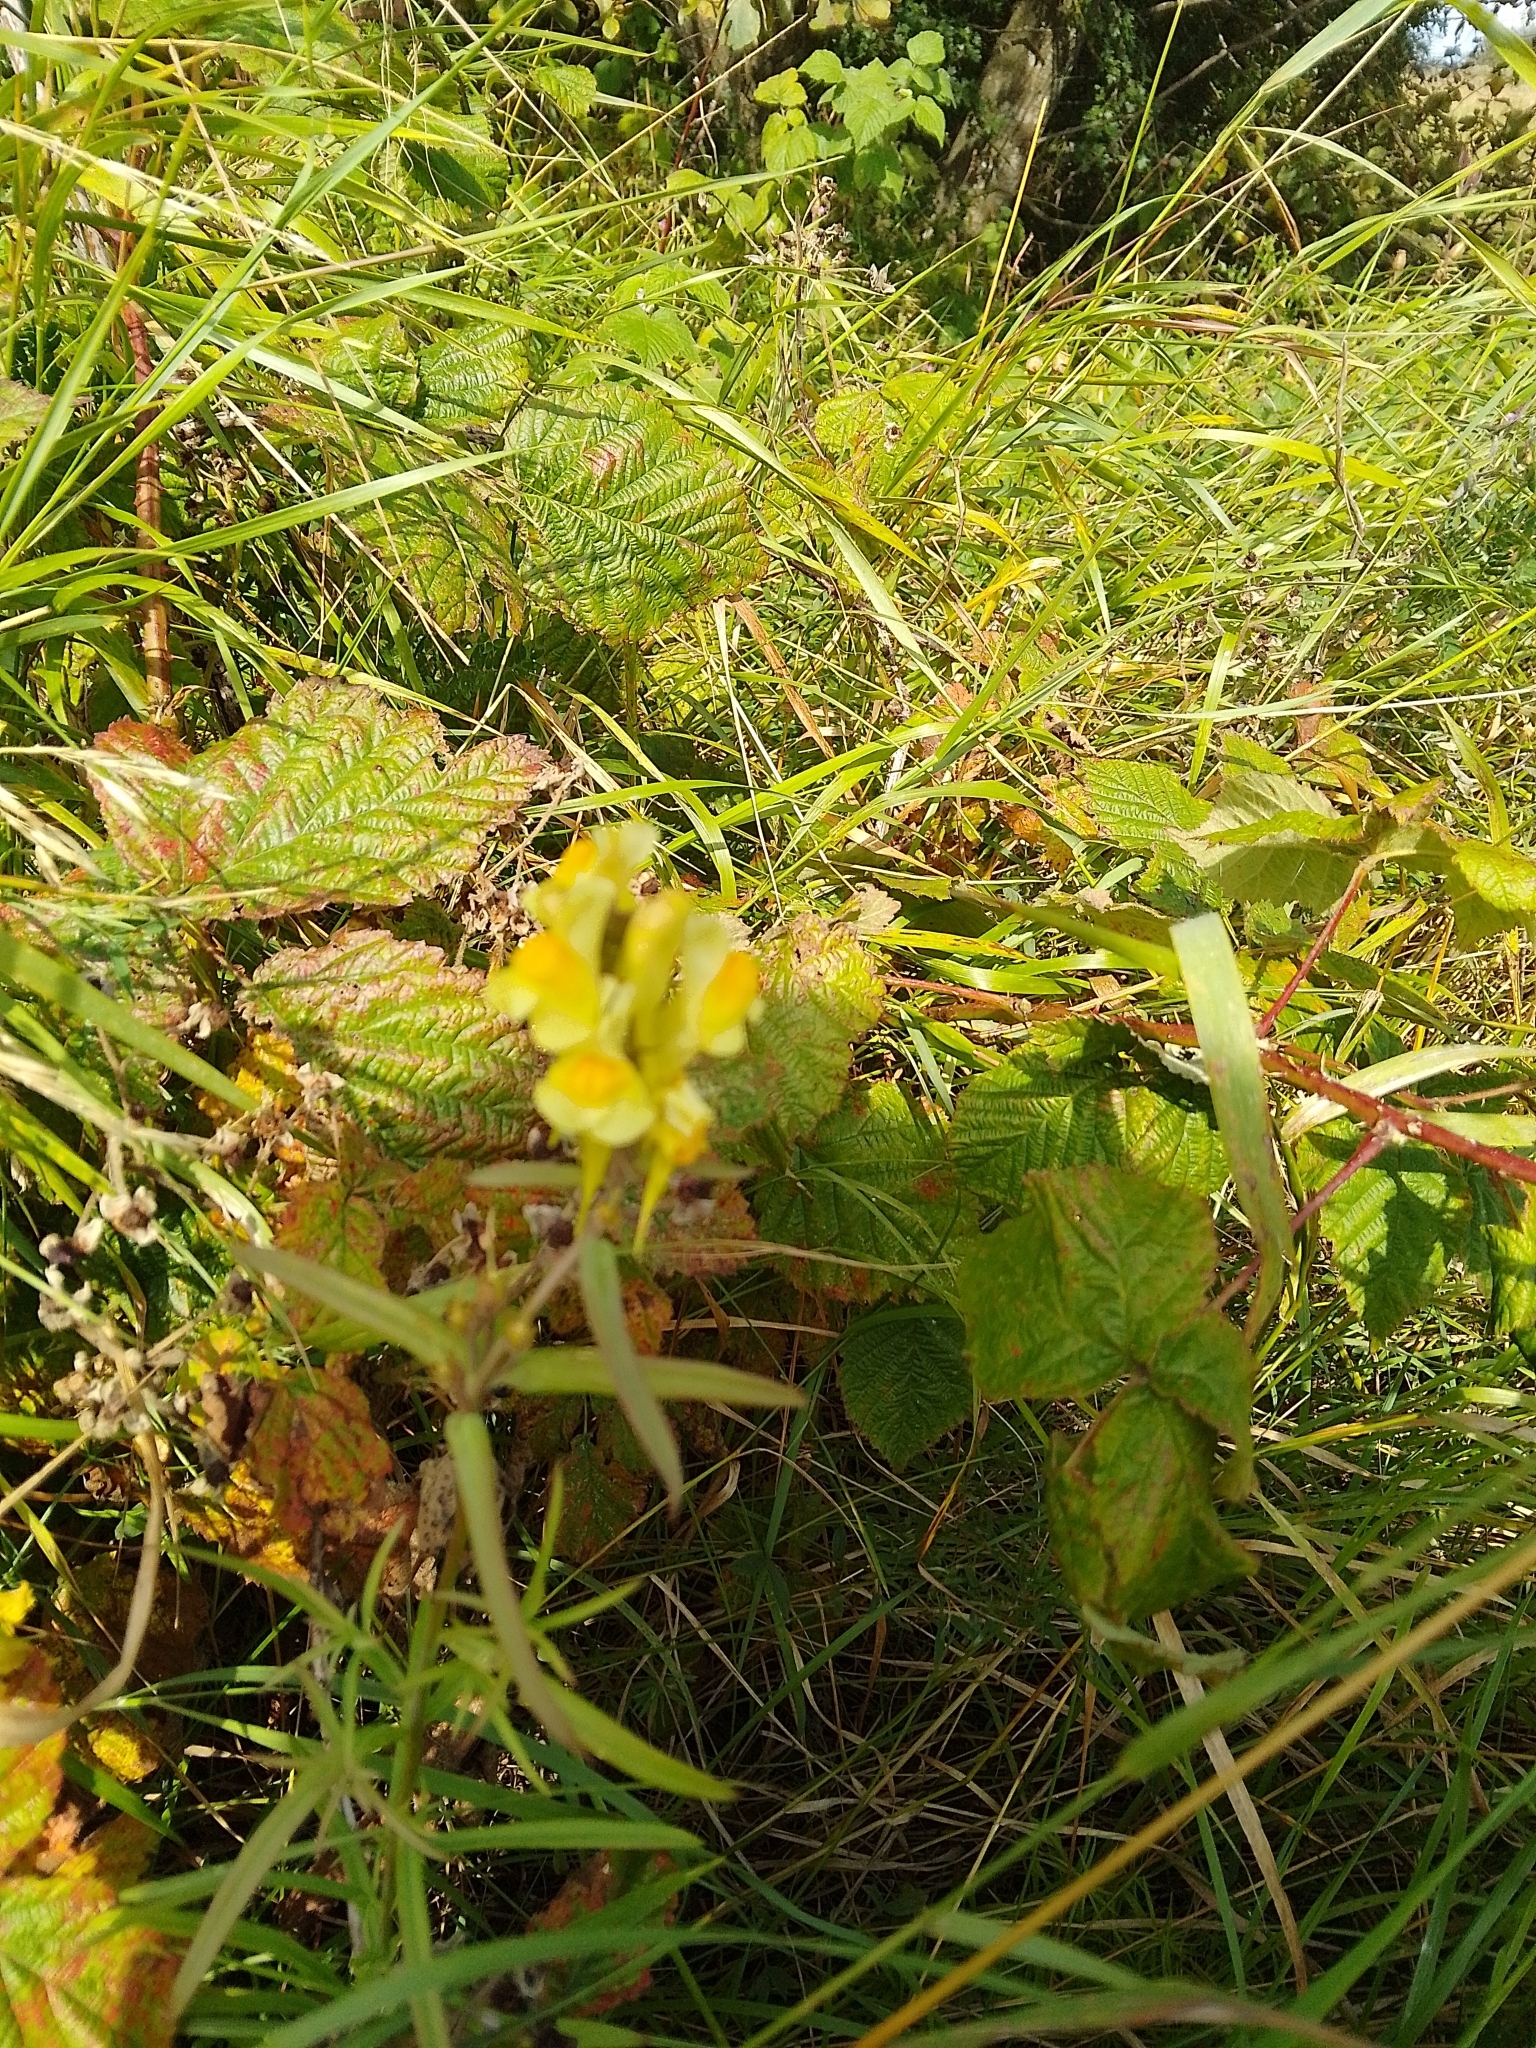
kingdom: Plantae
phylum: Tracheophyta
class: Magnoliopsida
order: Lamiales
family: Plantaginaceae
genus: Linaria
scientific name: Linaria vulgaris
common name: Butter and eggs
